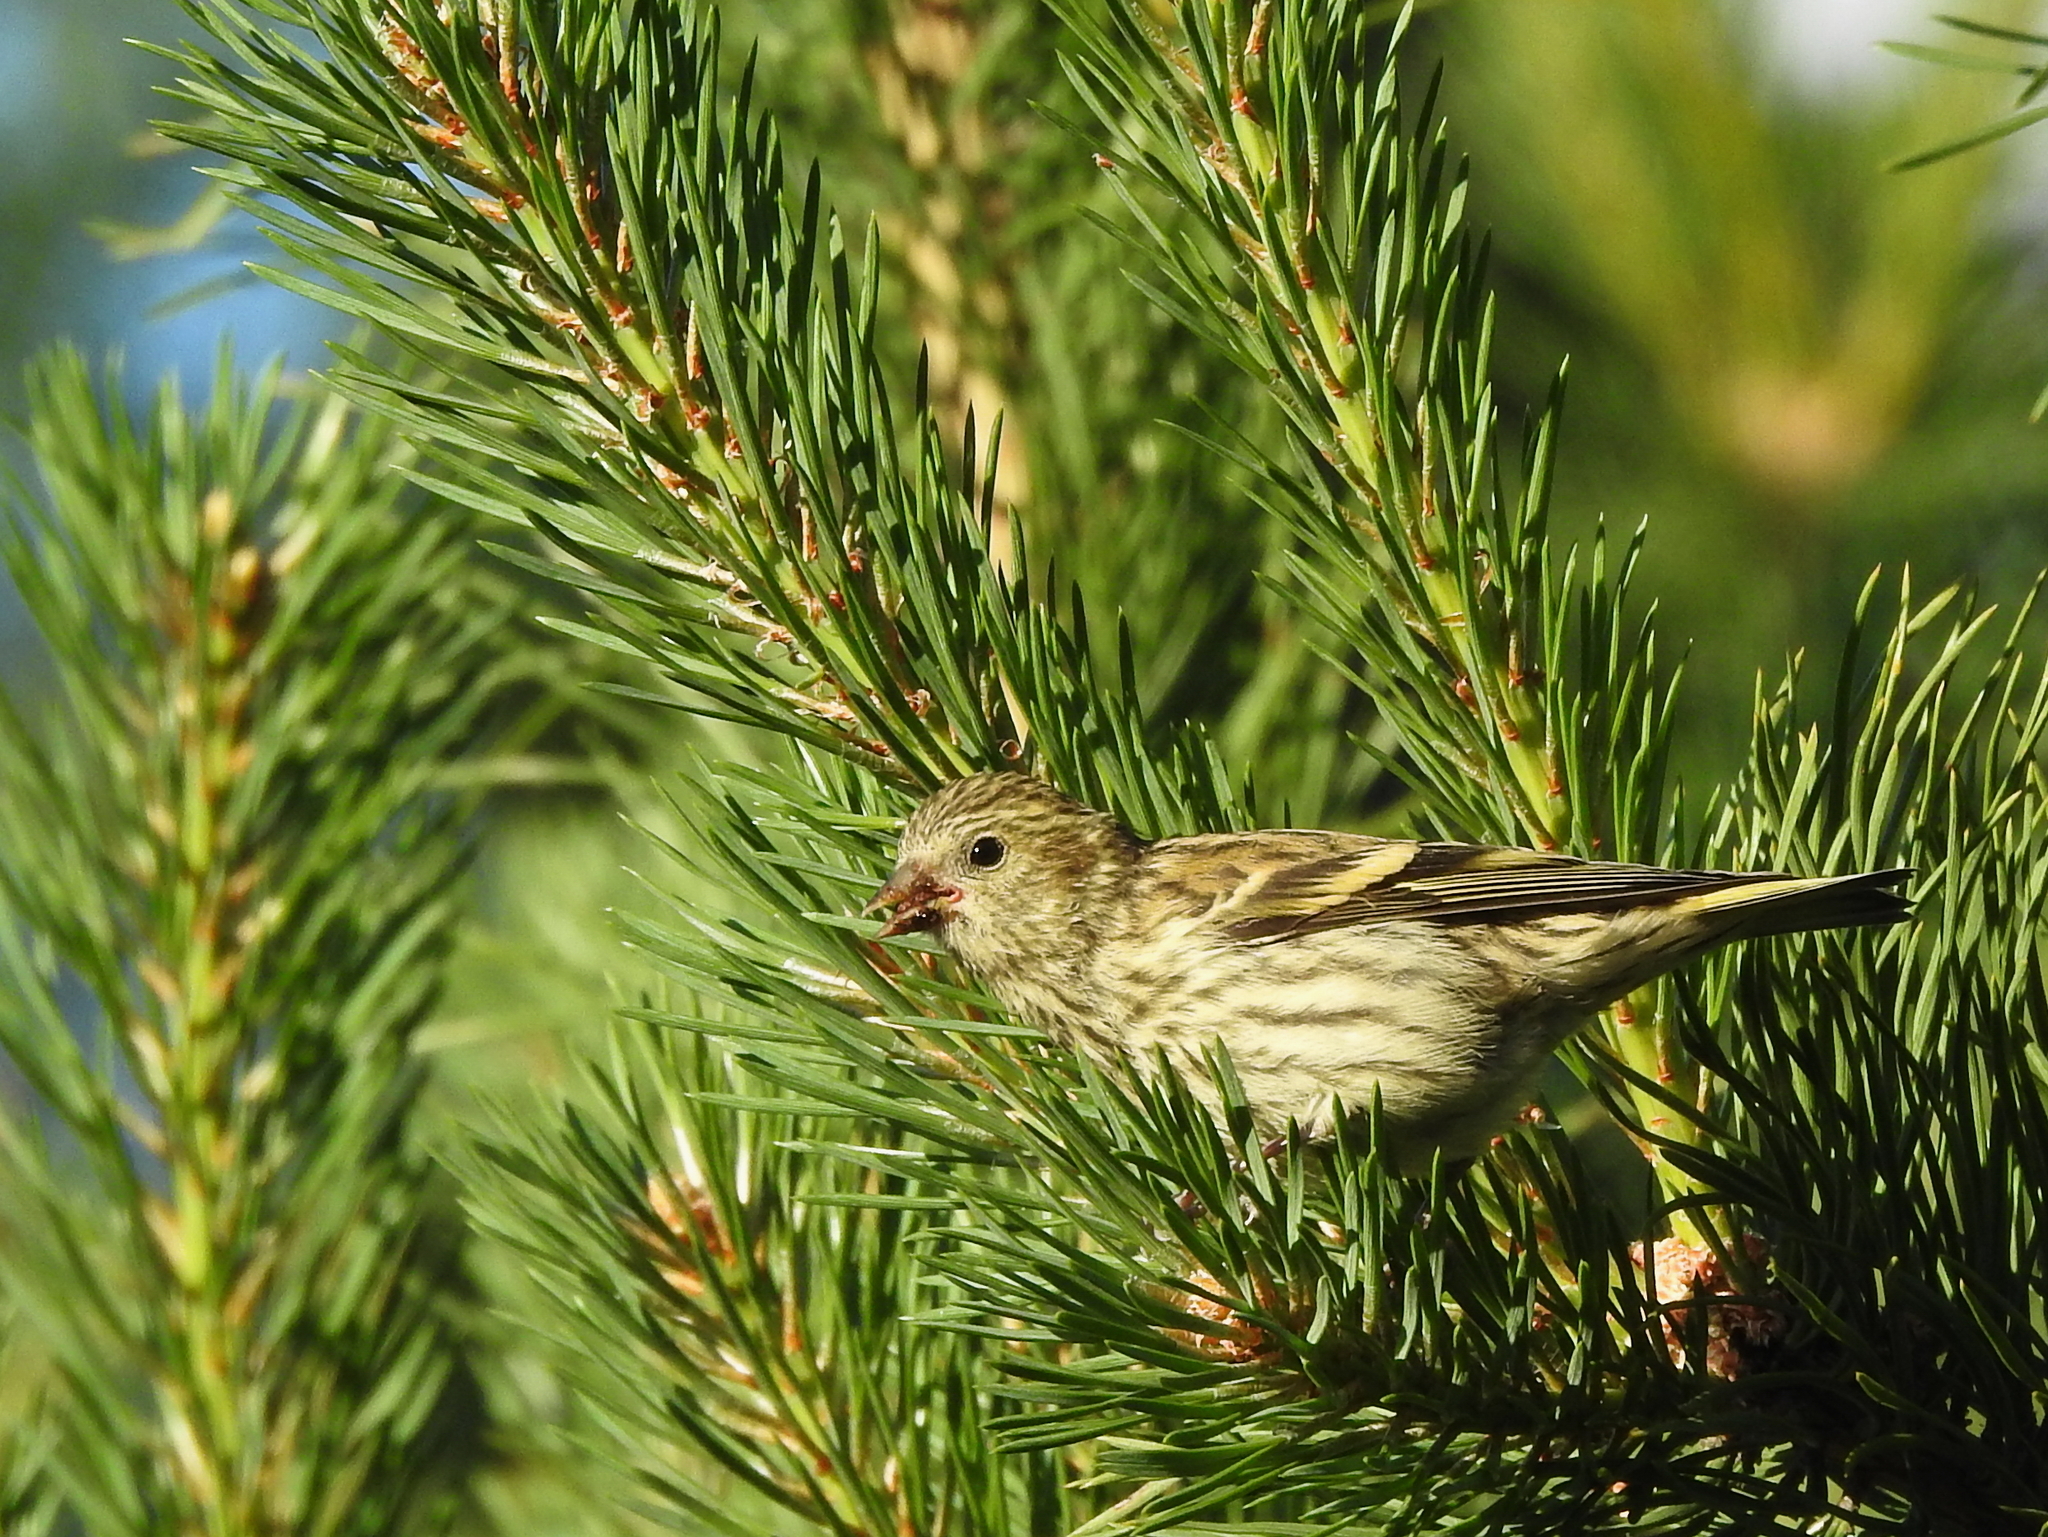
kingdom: Animalia
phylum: Chordata
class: Aves
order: Passeriformes
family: Fringillidae
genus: Spinus
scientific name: Spinus spinus
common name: Eurasian siskin
